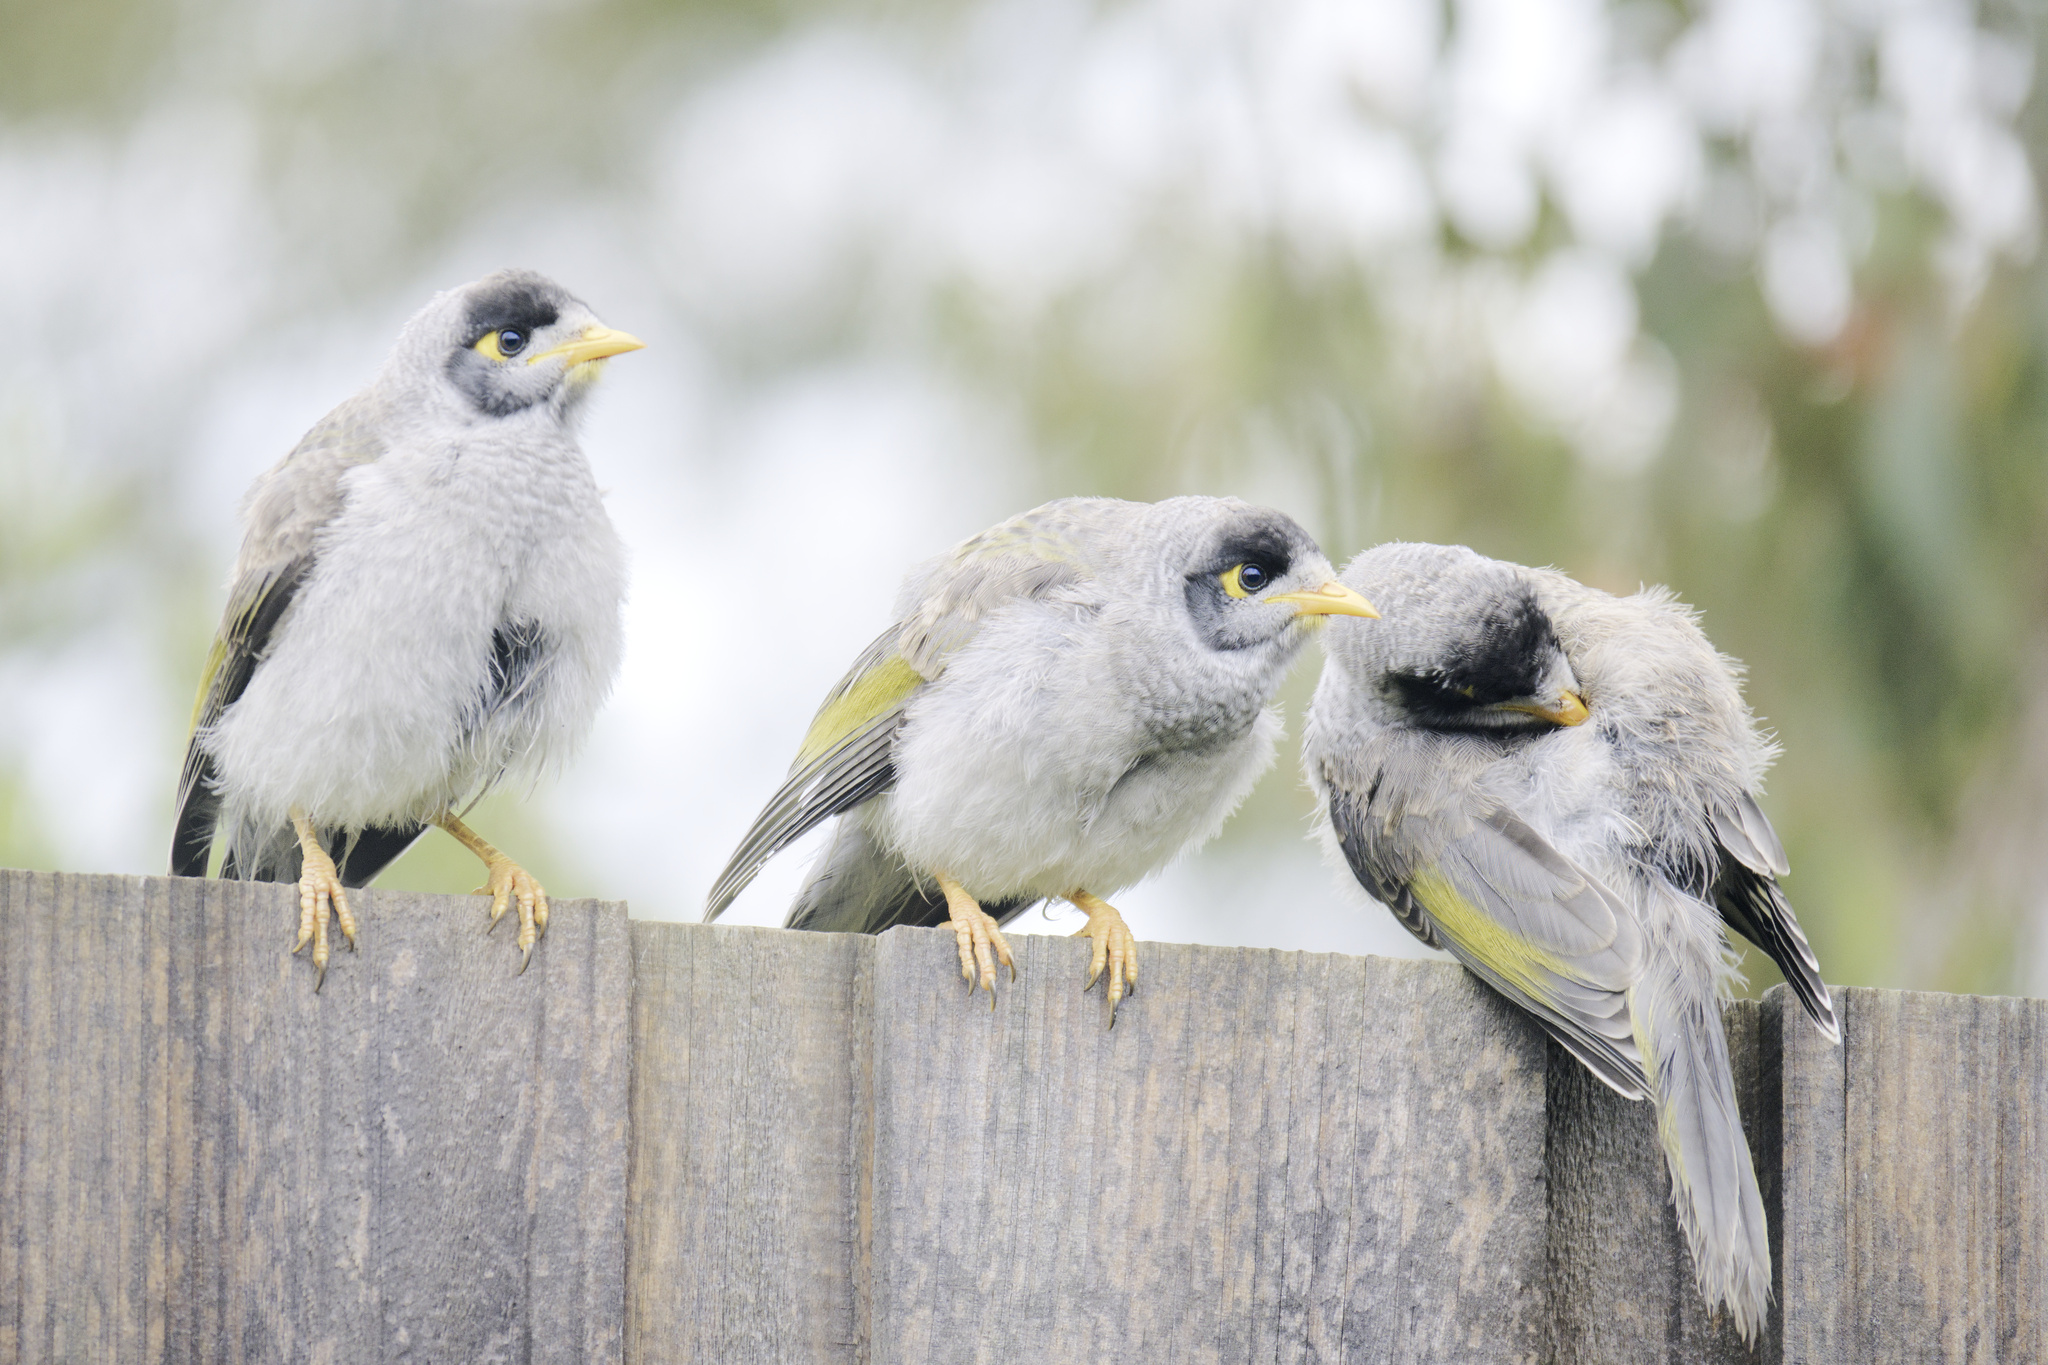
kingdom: Animalia
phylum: Chordata
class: Aves
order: Passeriformes
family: Meliphagidae
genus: Manorina
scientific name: Manorina melanocephala
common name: Noisy miner
